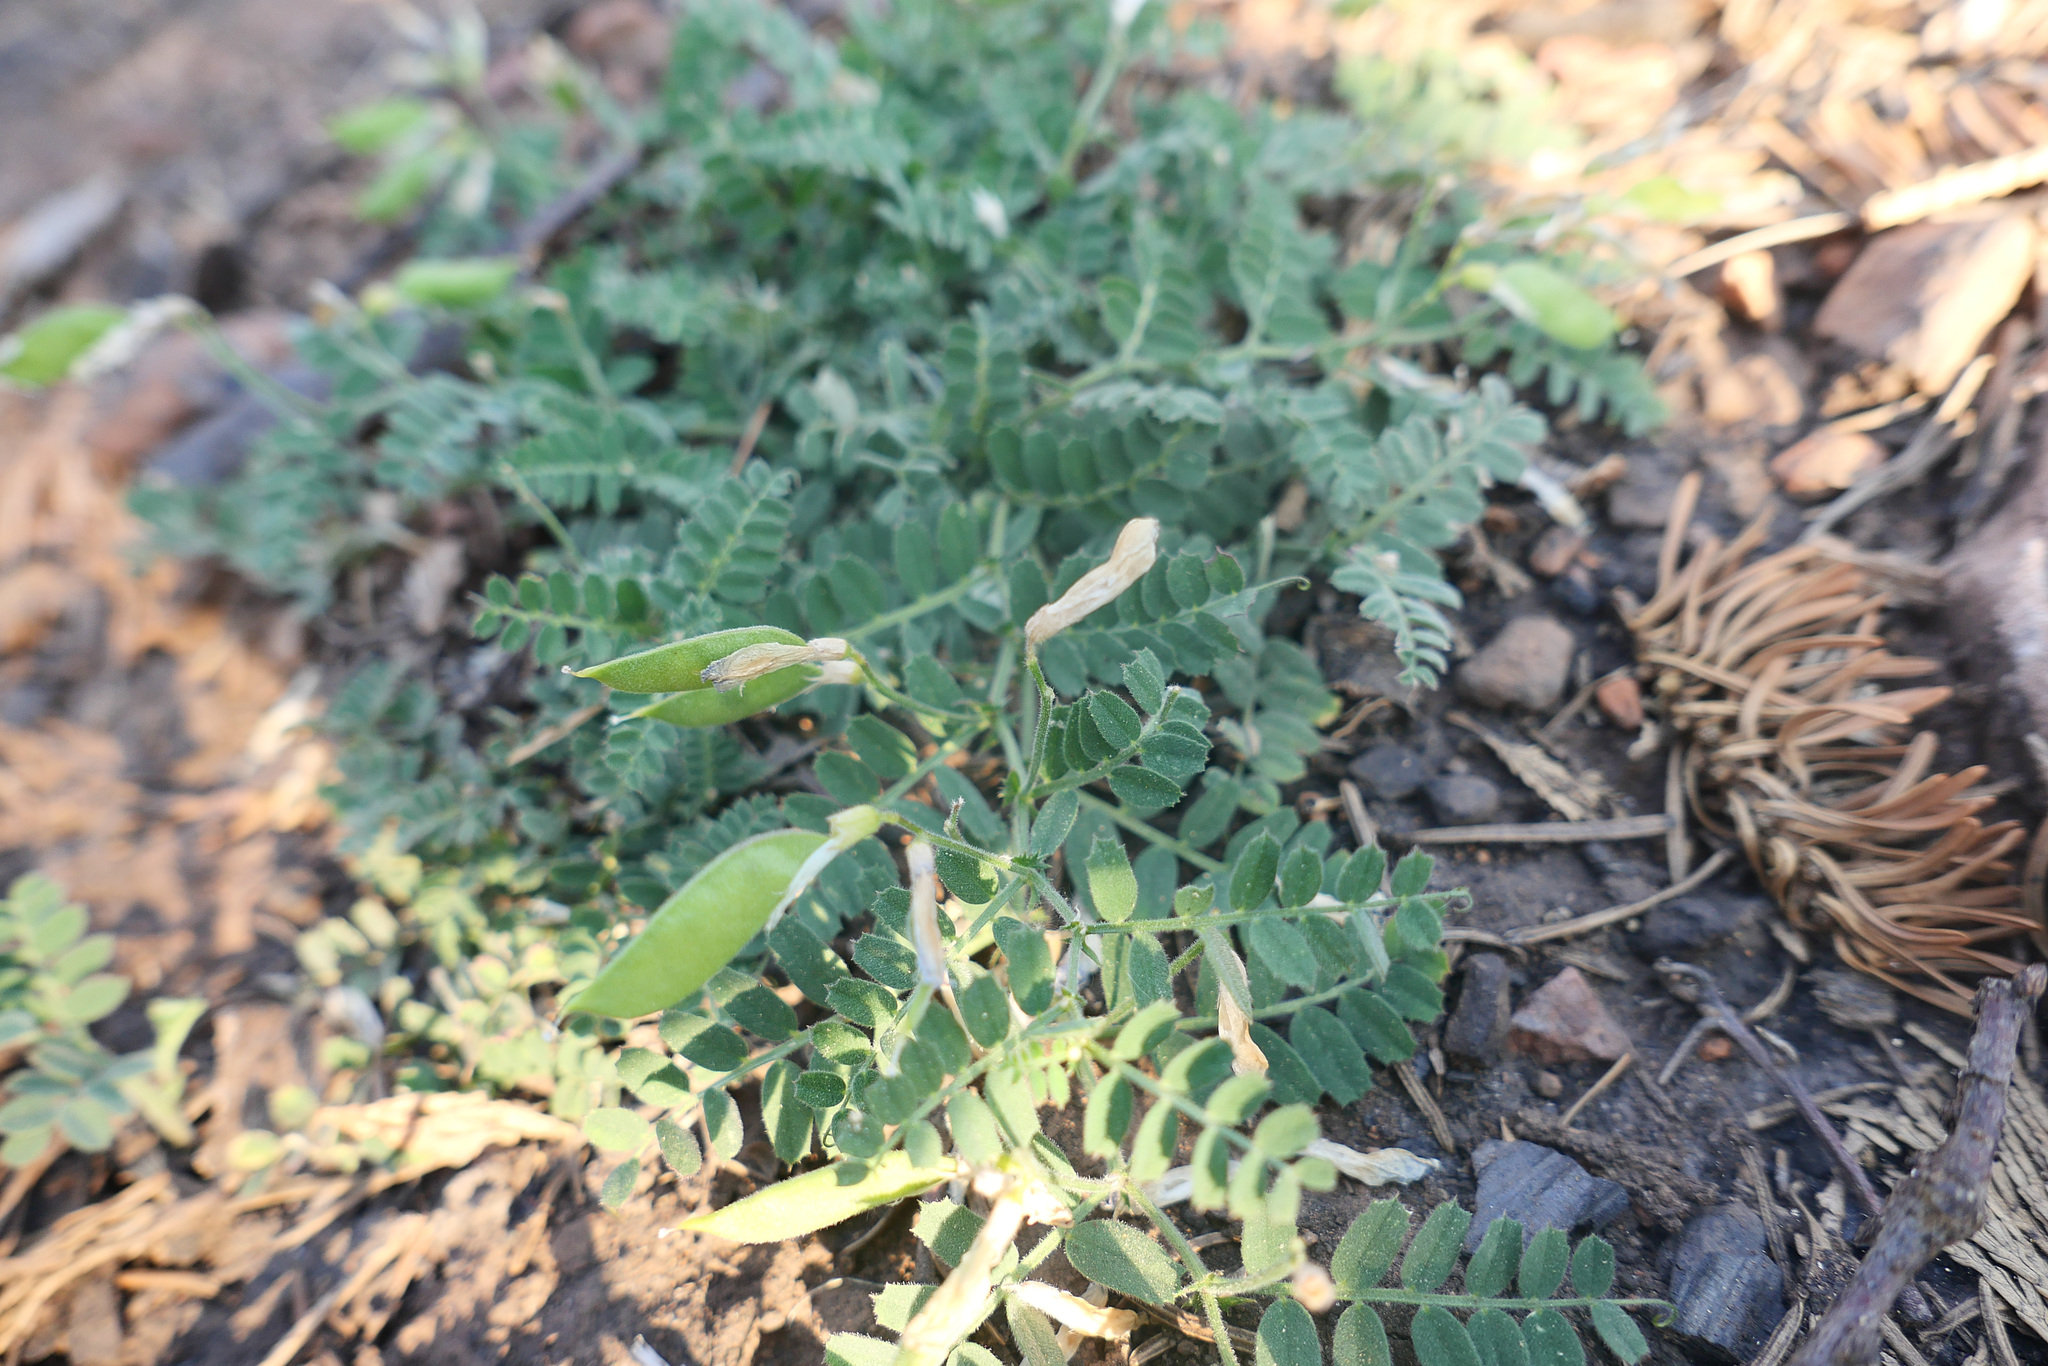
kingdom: Plantae
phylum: Tracheophyta
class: Magnoliopsida
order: Fabales
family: Fabaceae
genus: Vicia
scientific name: Vicia americana
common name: American vetch
